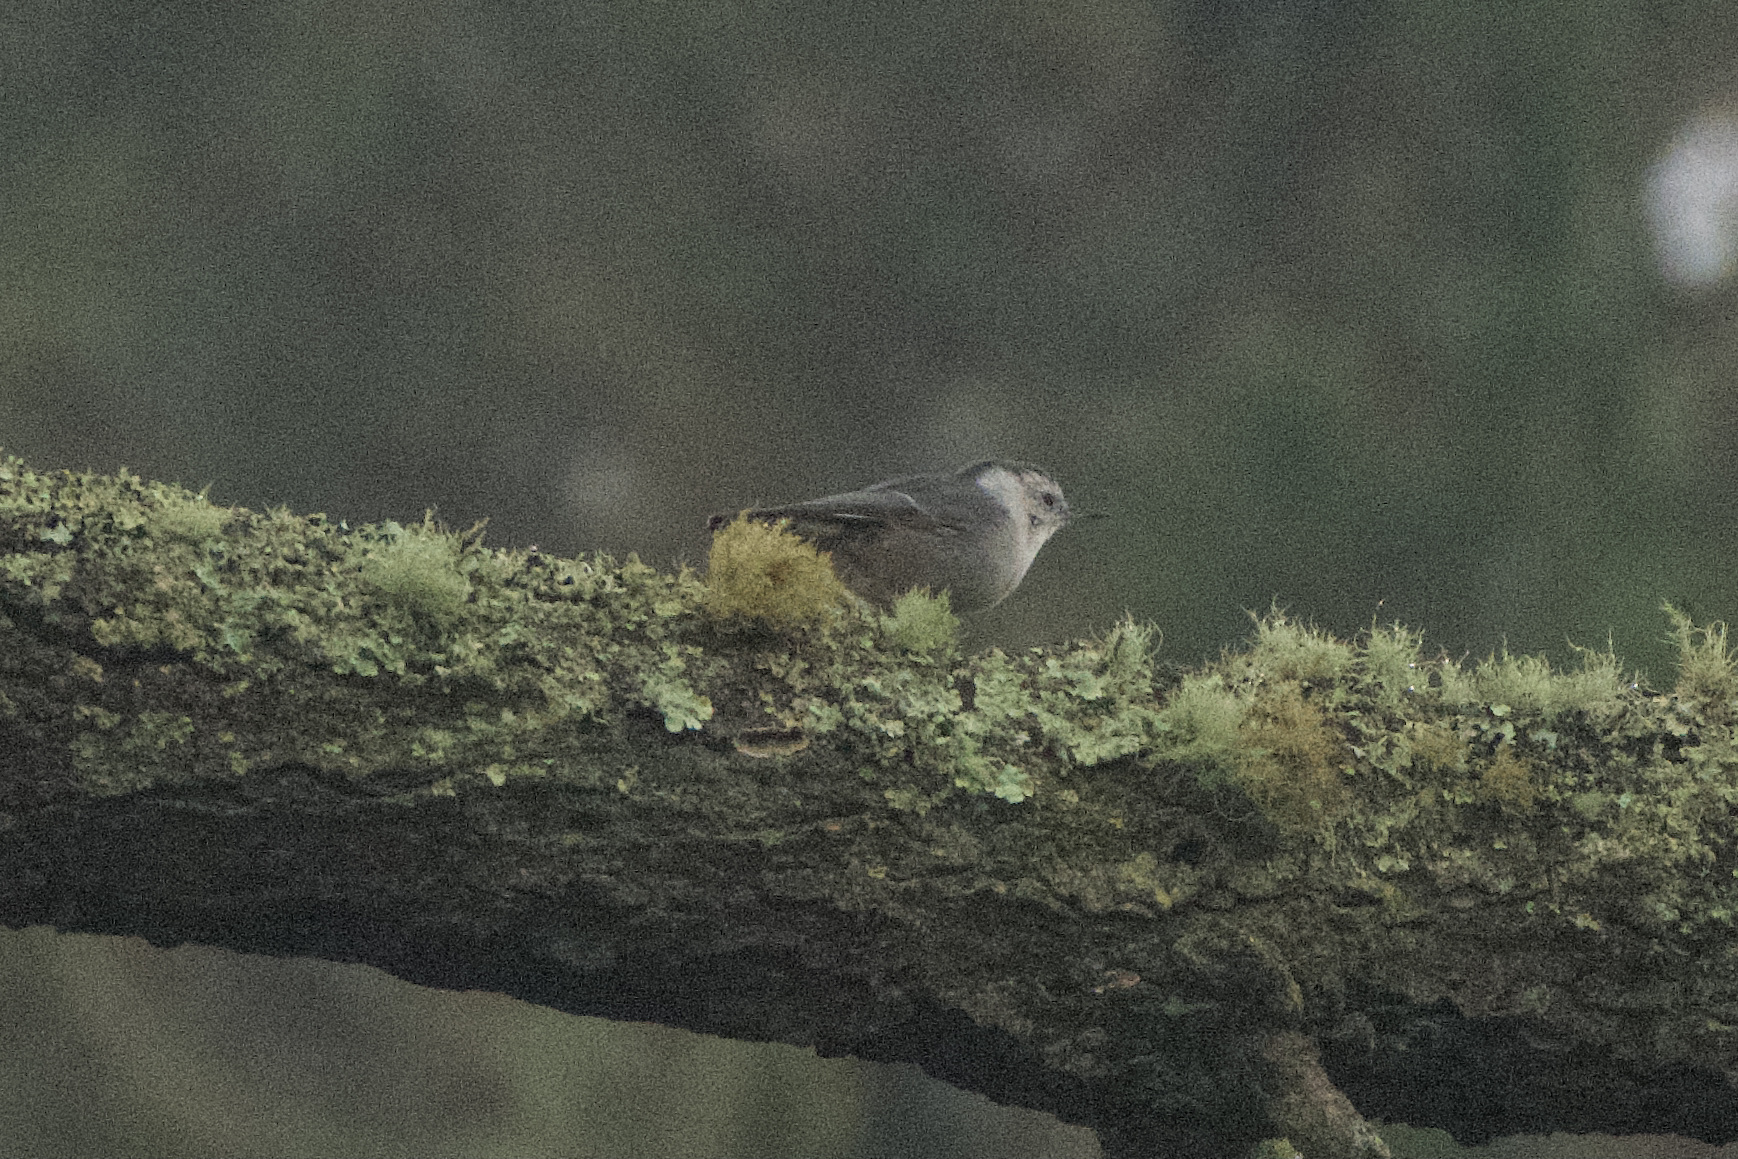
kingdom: Animalia
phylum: Chordata
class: Aves
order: Passeriformes
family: Sittidae
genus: Sitta
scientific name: Sitta carolinensis
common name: White-breasted nuthatch
